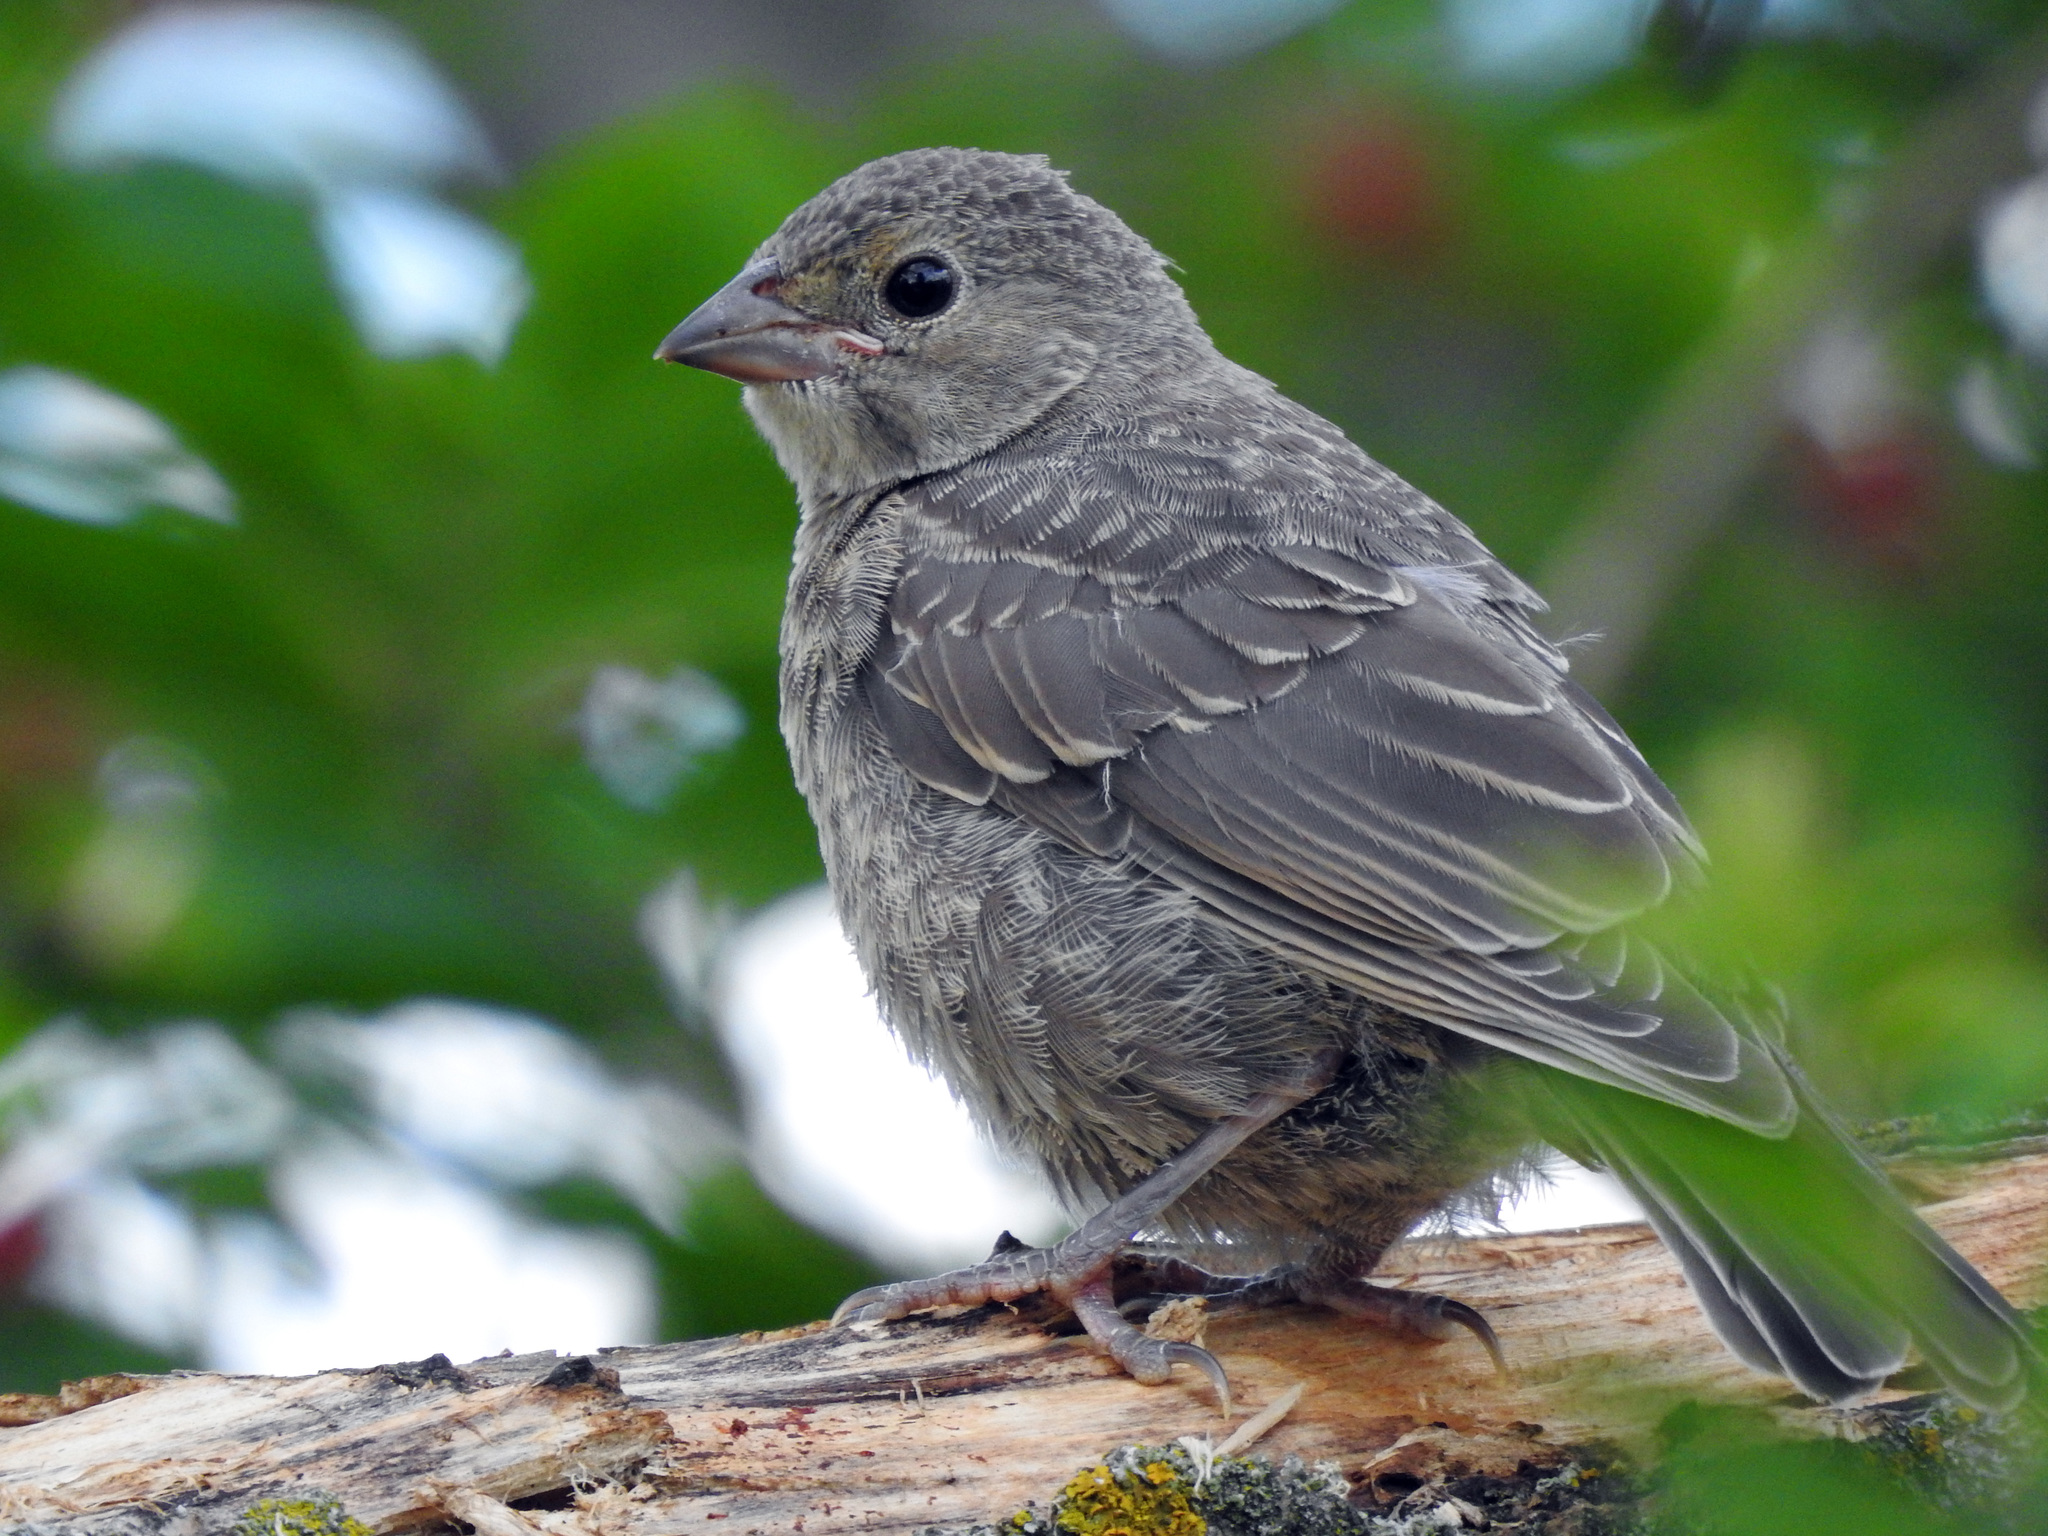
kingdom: Animalia
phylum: Chordata
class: Aves
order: Passeriformes
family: Icteridae
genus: Molothrus
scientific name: Molothrus ater
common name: Brown-headed cowbird
